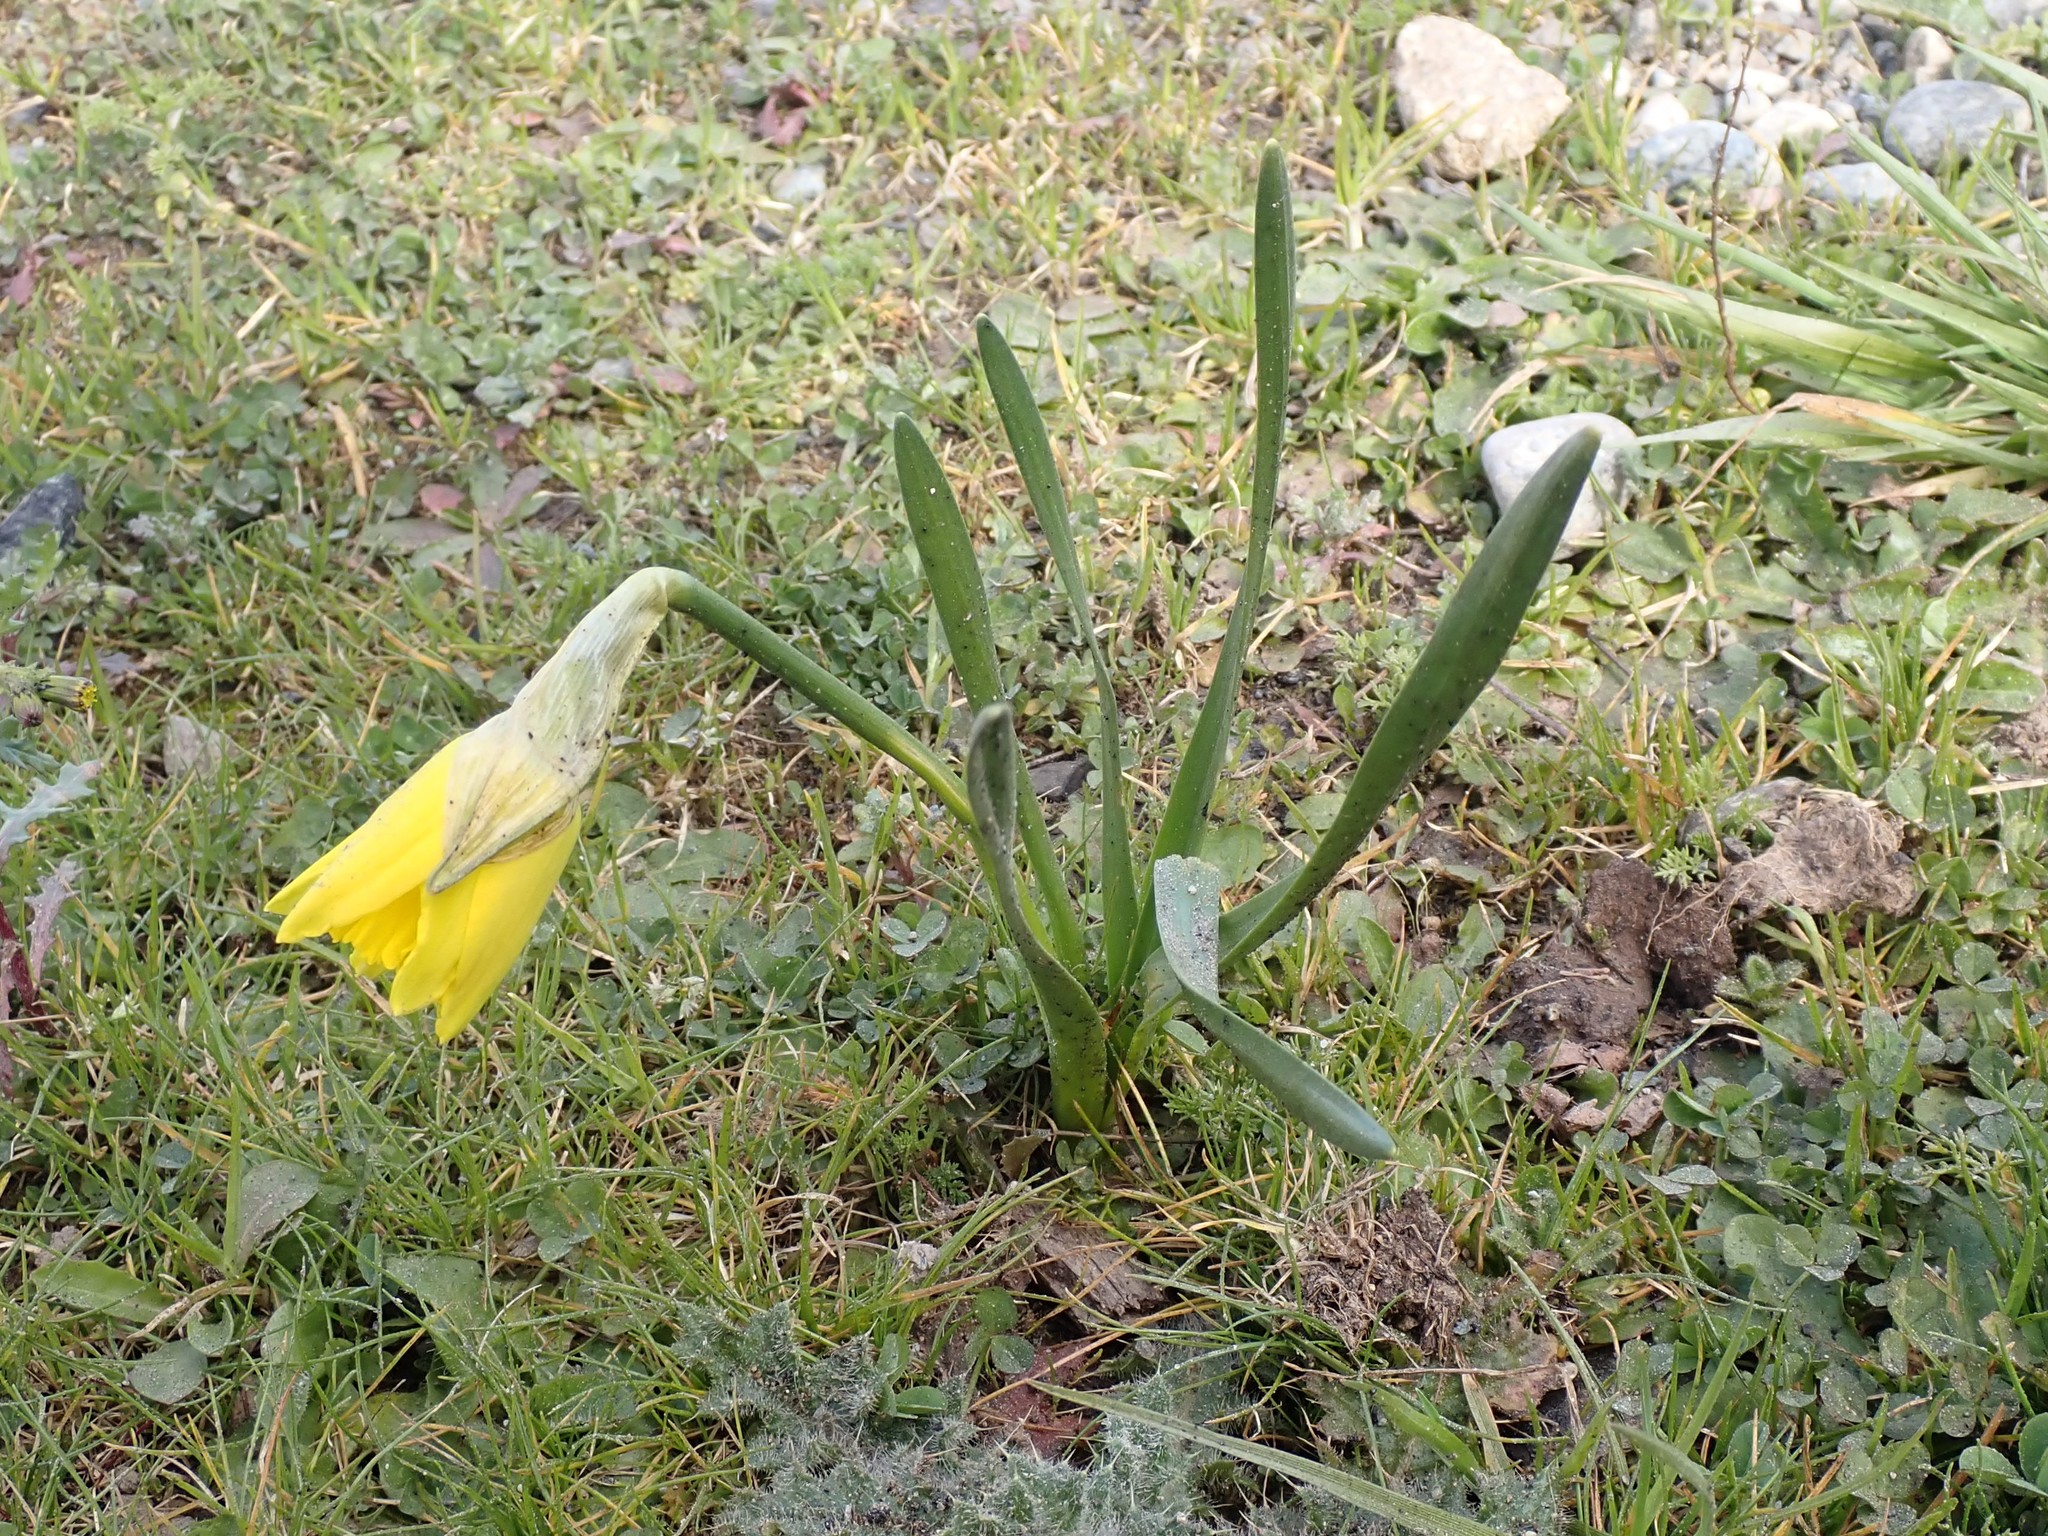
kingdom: Plantae
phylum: Tracheophyta
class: Liliopsida
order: Asparagales
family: Amaryllidaceae
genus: Narcissus
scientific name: Narcissus pseudonarcissus
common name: Daffodil
